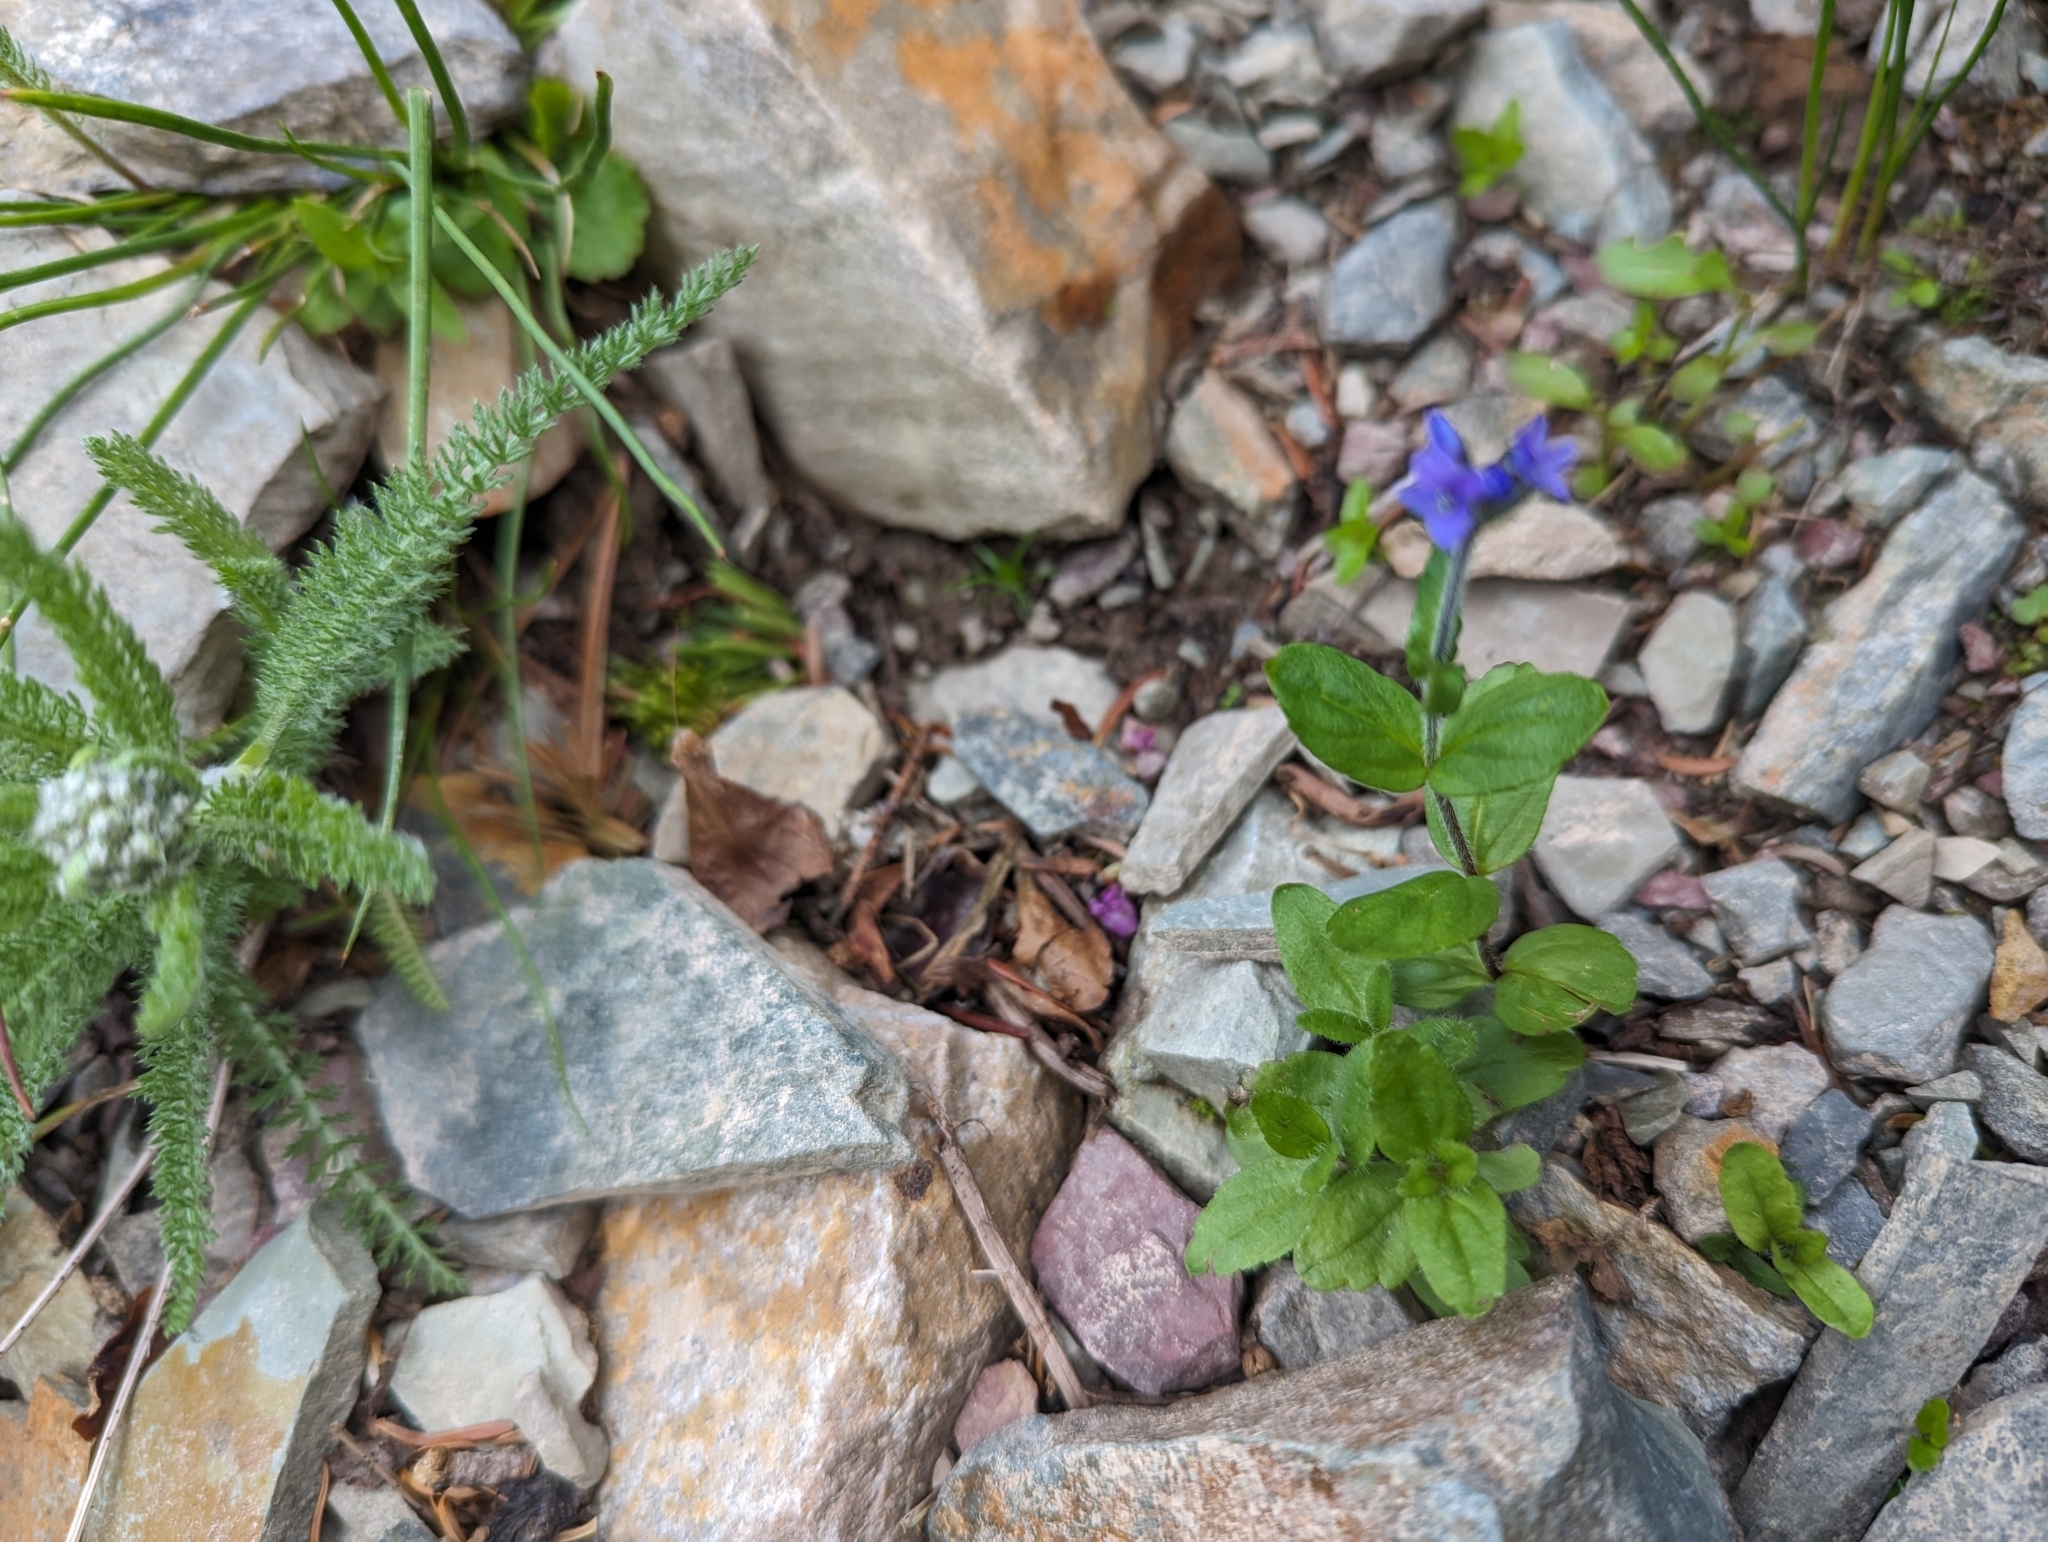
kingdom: Plantae
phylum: Tracheophyta
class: Magnoliopsida
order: Lamiales
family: Plantaginaceae
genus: Veronica
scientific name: Veronica wormskjoldii
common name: American alpine speedwell
